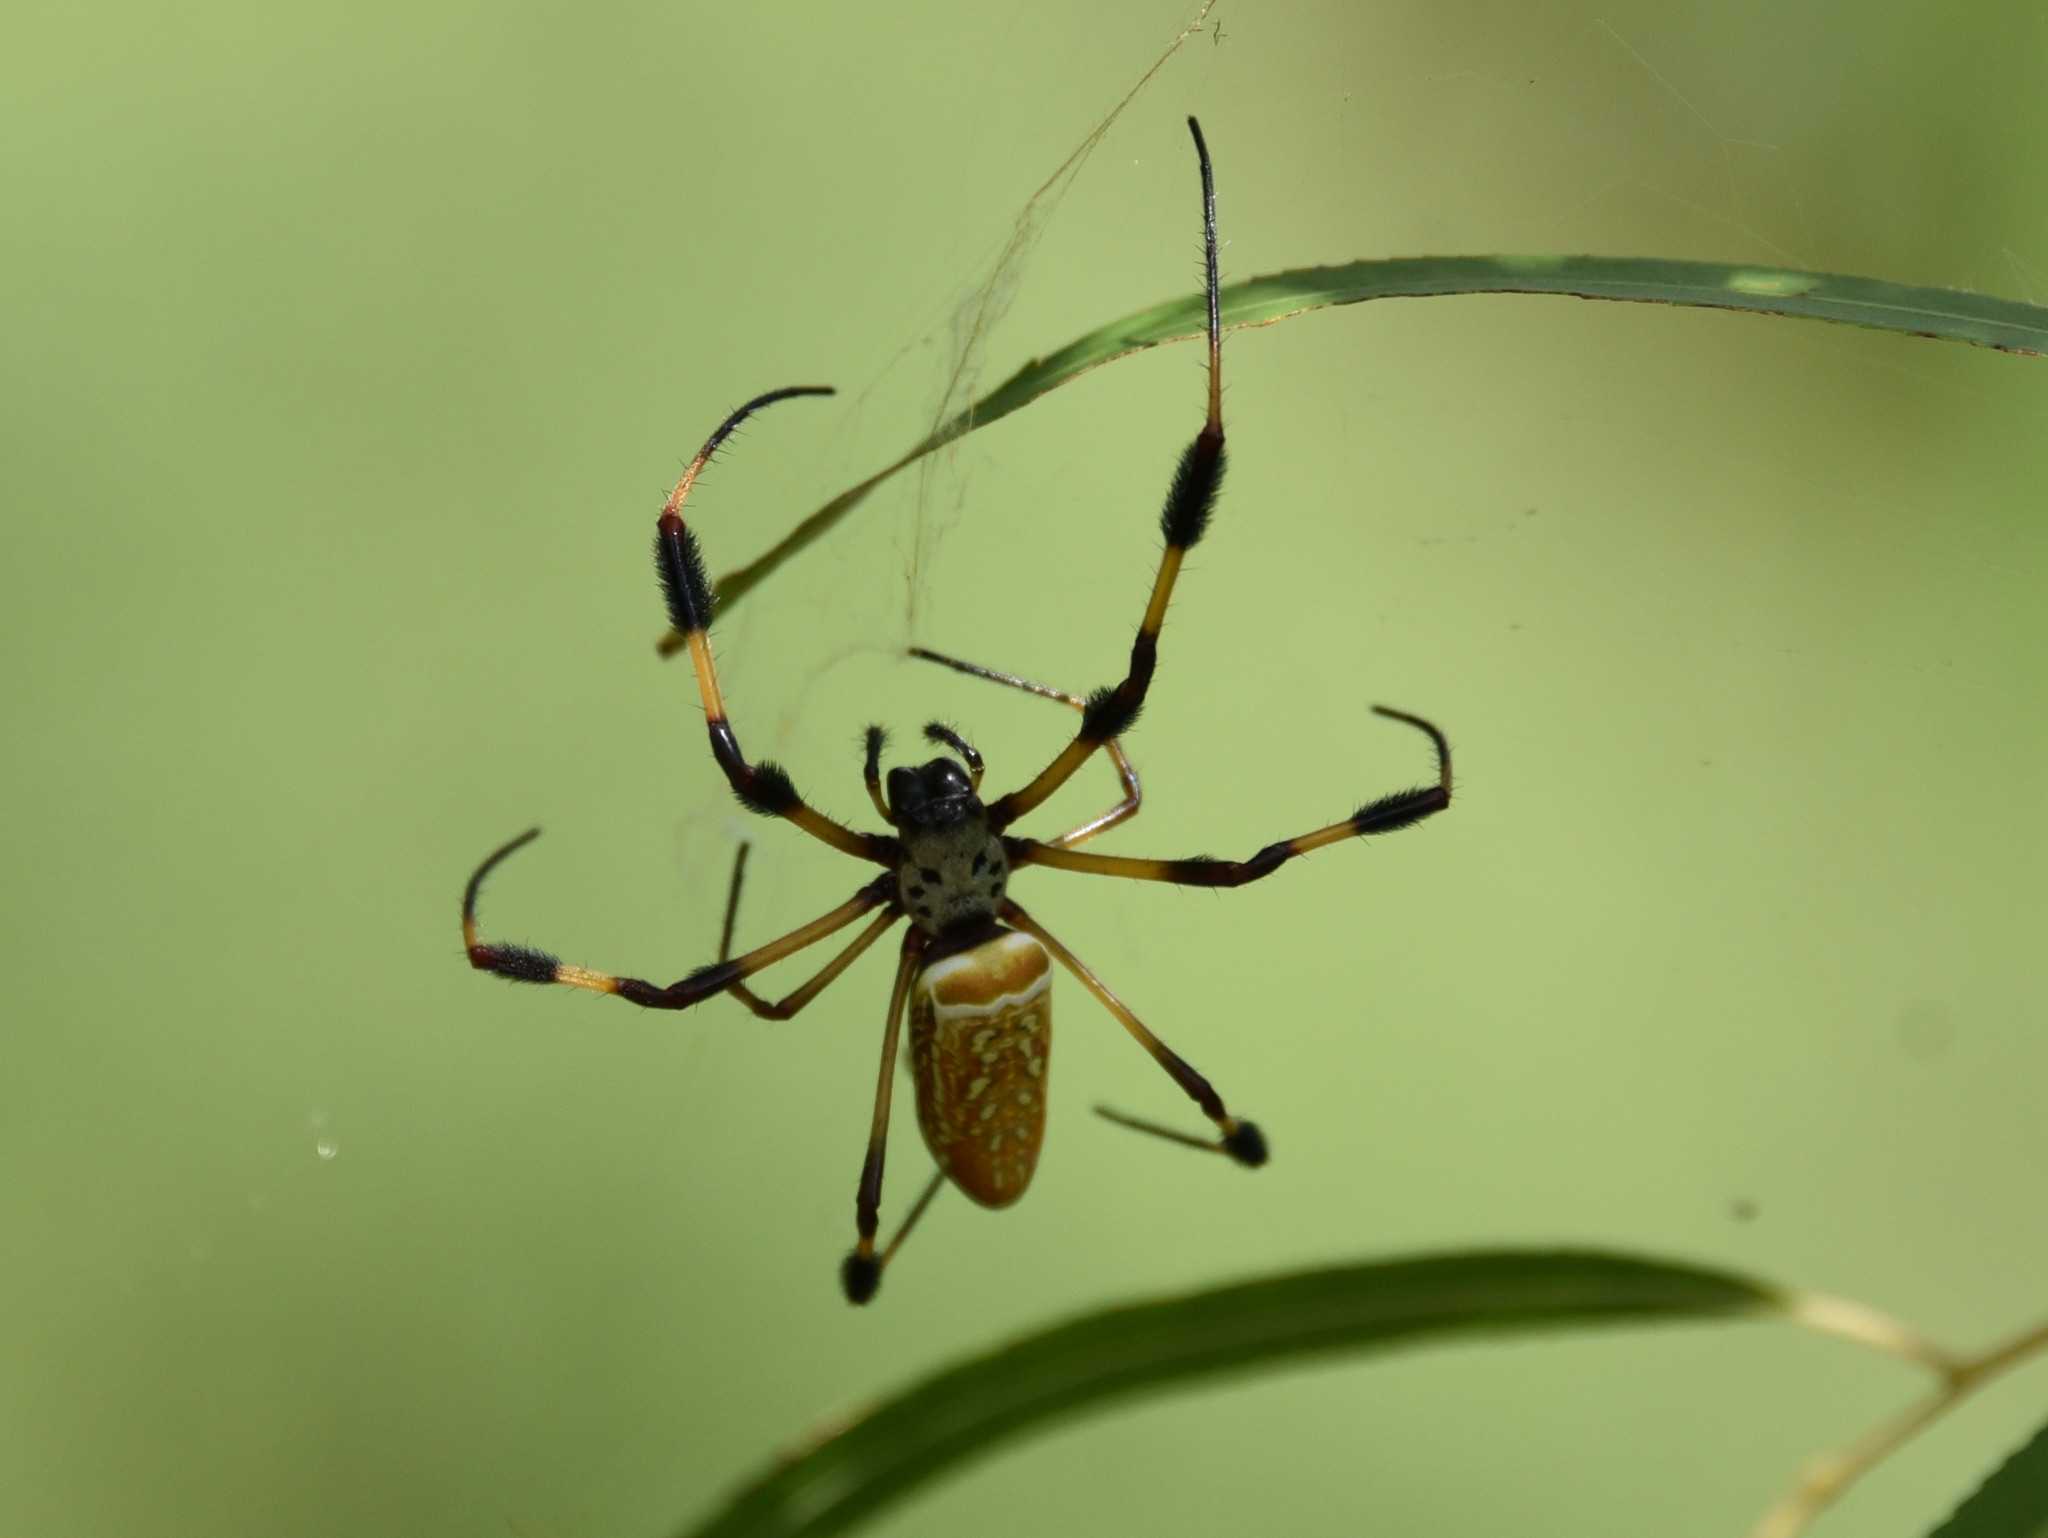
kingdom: Animalia
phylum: Arthropoda
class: Arachnida
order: Araneae
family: Araneidae
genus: Trichonephila
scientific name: Trichonephila clavipes
